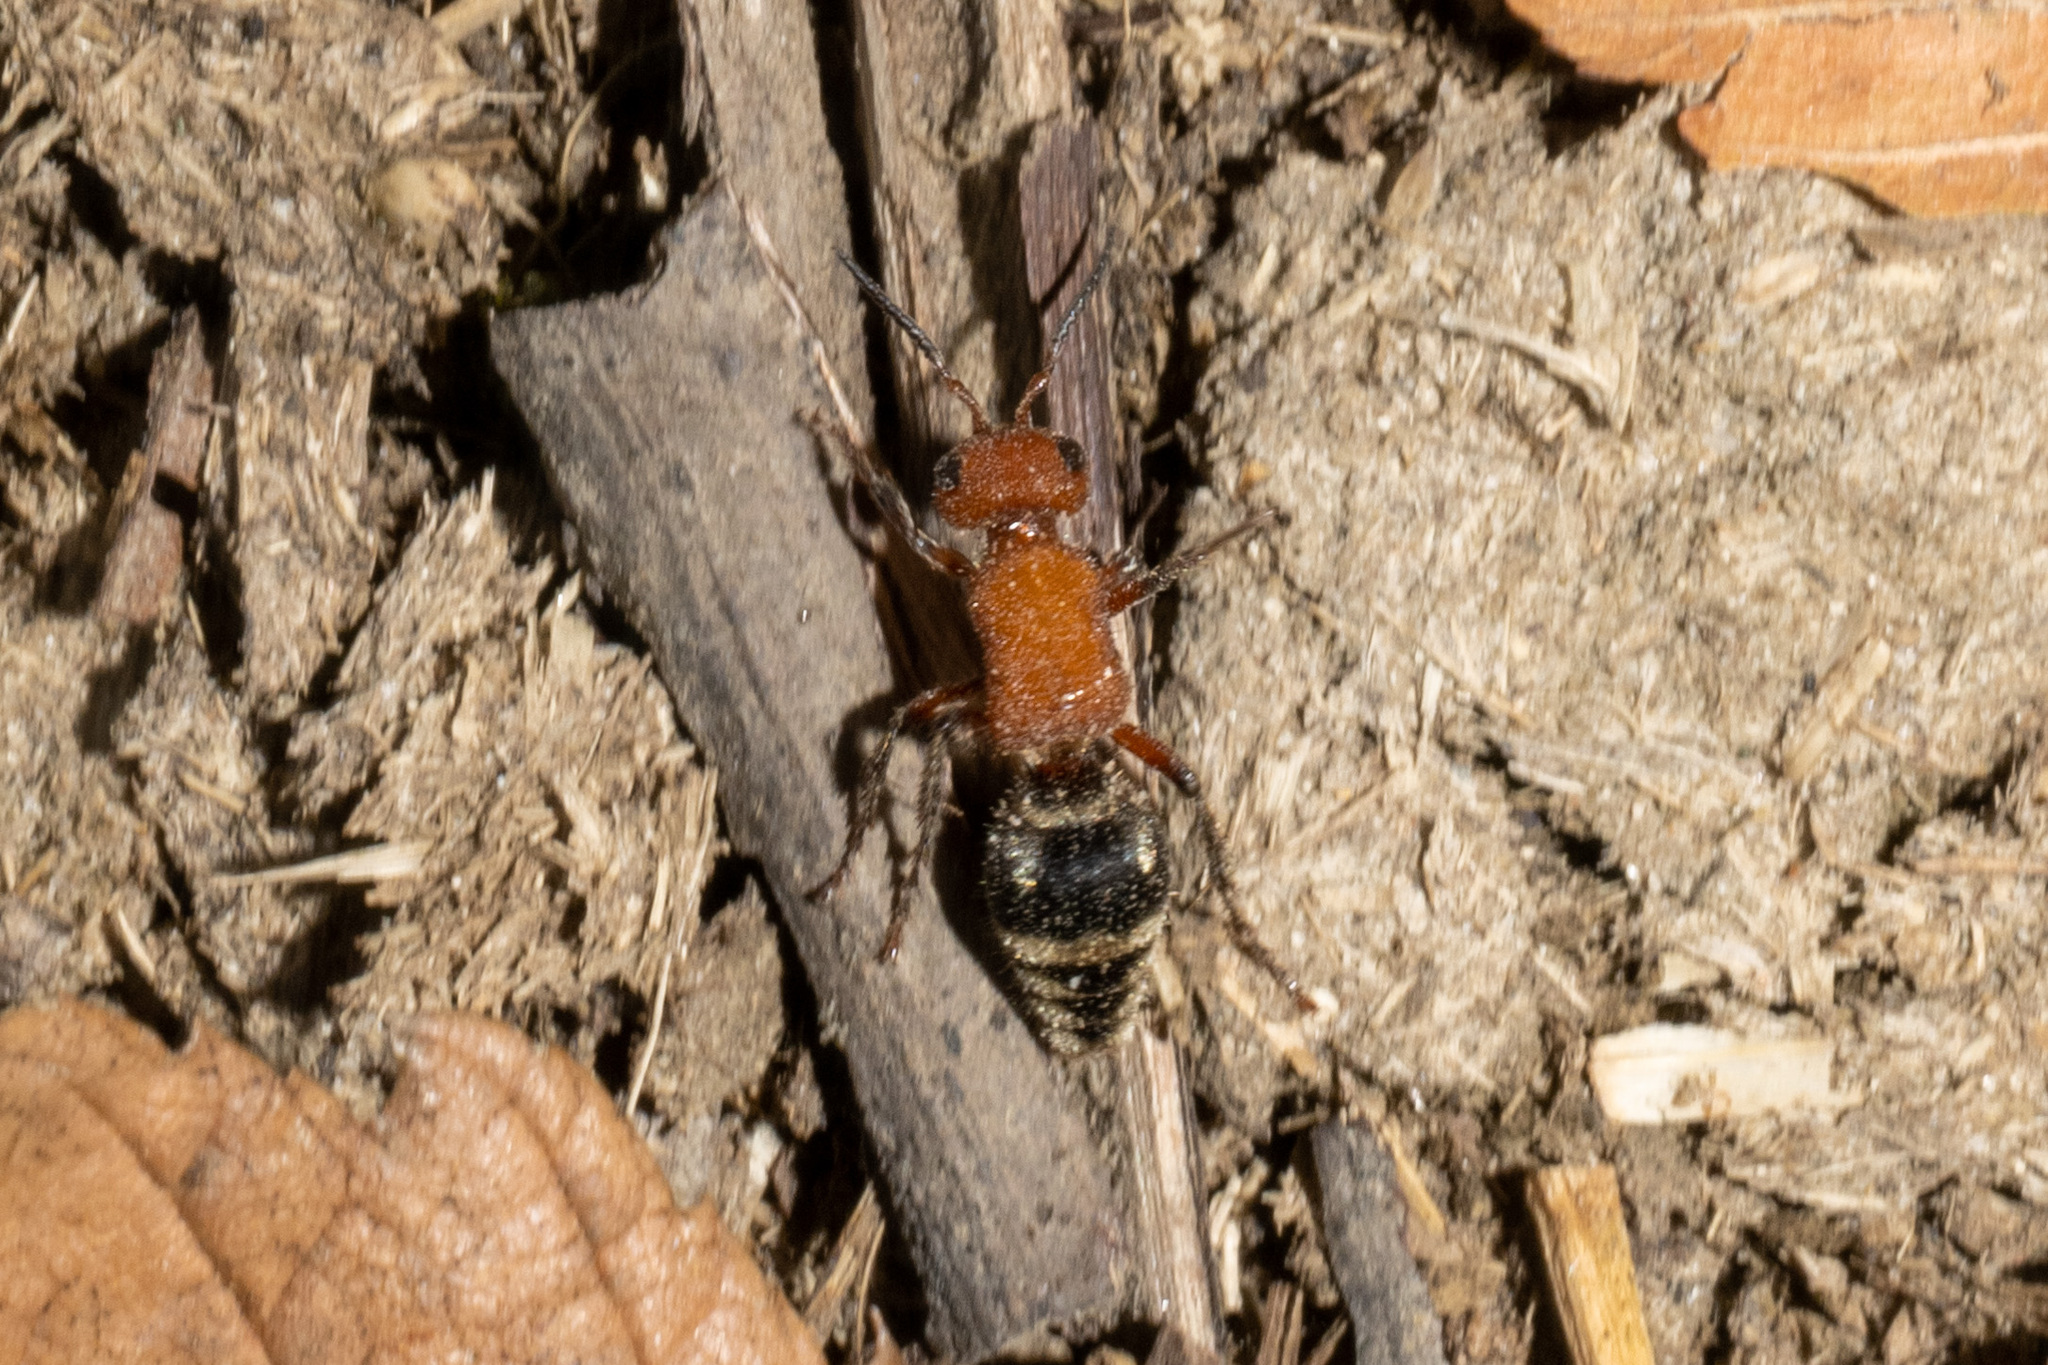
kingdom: Animalia
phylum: Arthropoda
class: Insecta
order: Hymenoptera
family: Mutillidae
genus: Timulla
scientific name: Timulla
